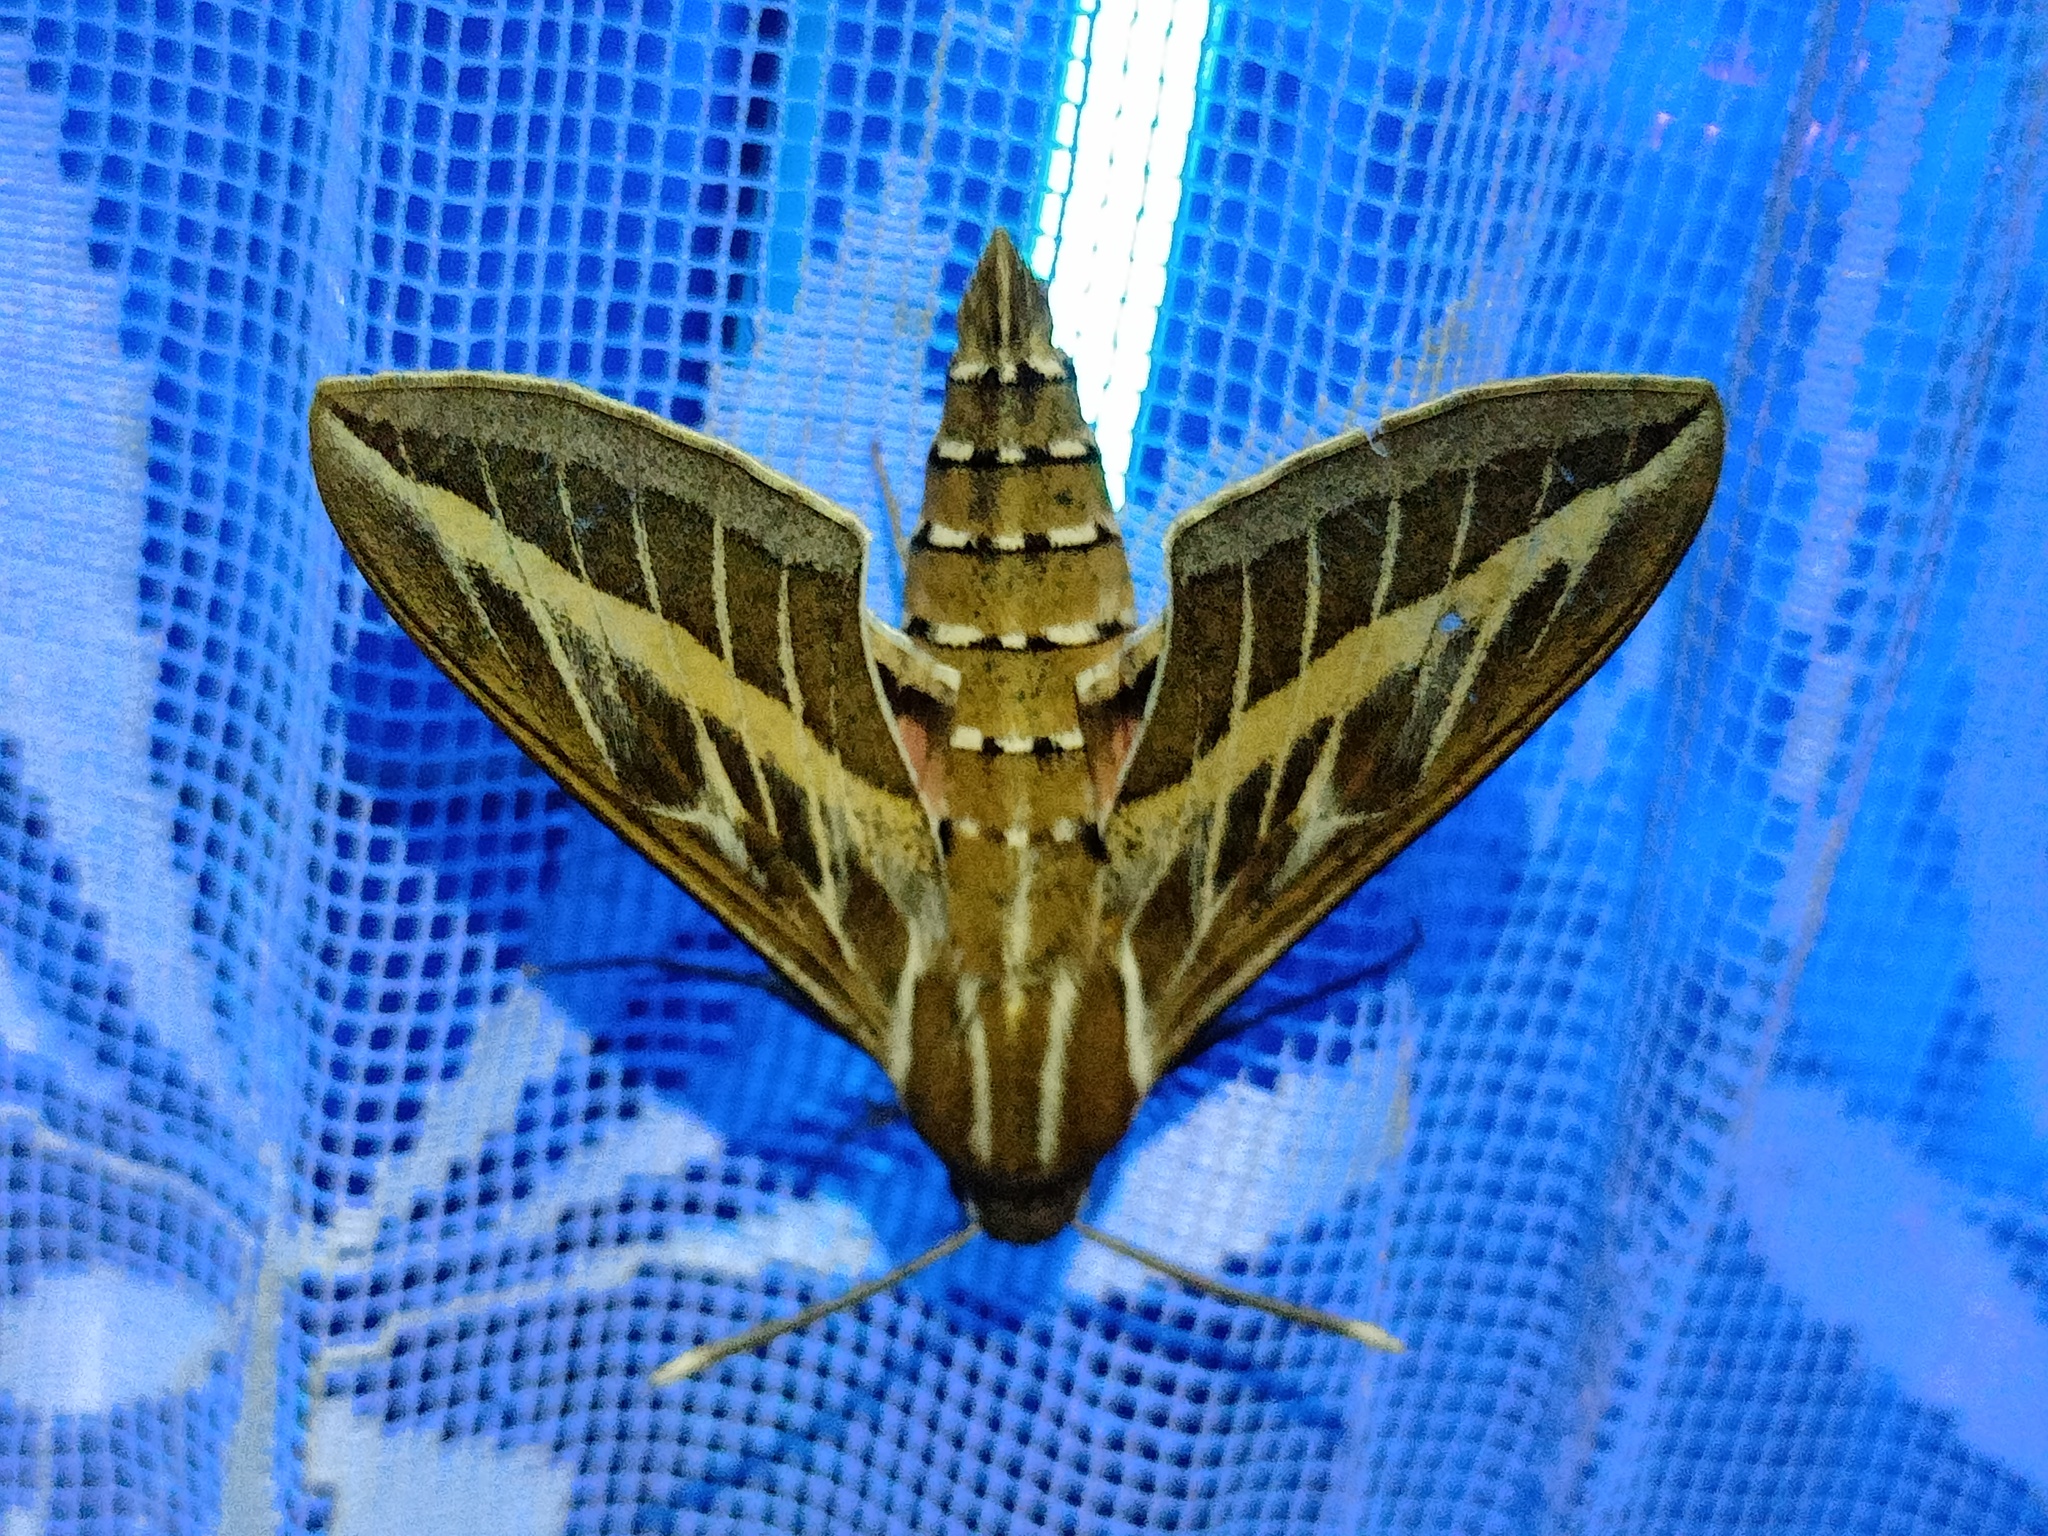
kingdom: Animalia
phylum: Arthropoda
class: Insecta
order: Lepidoptera
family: Sphingidae
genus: Hyles
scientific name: Hyles livornica
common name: Striped hawk-moth
